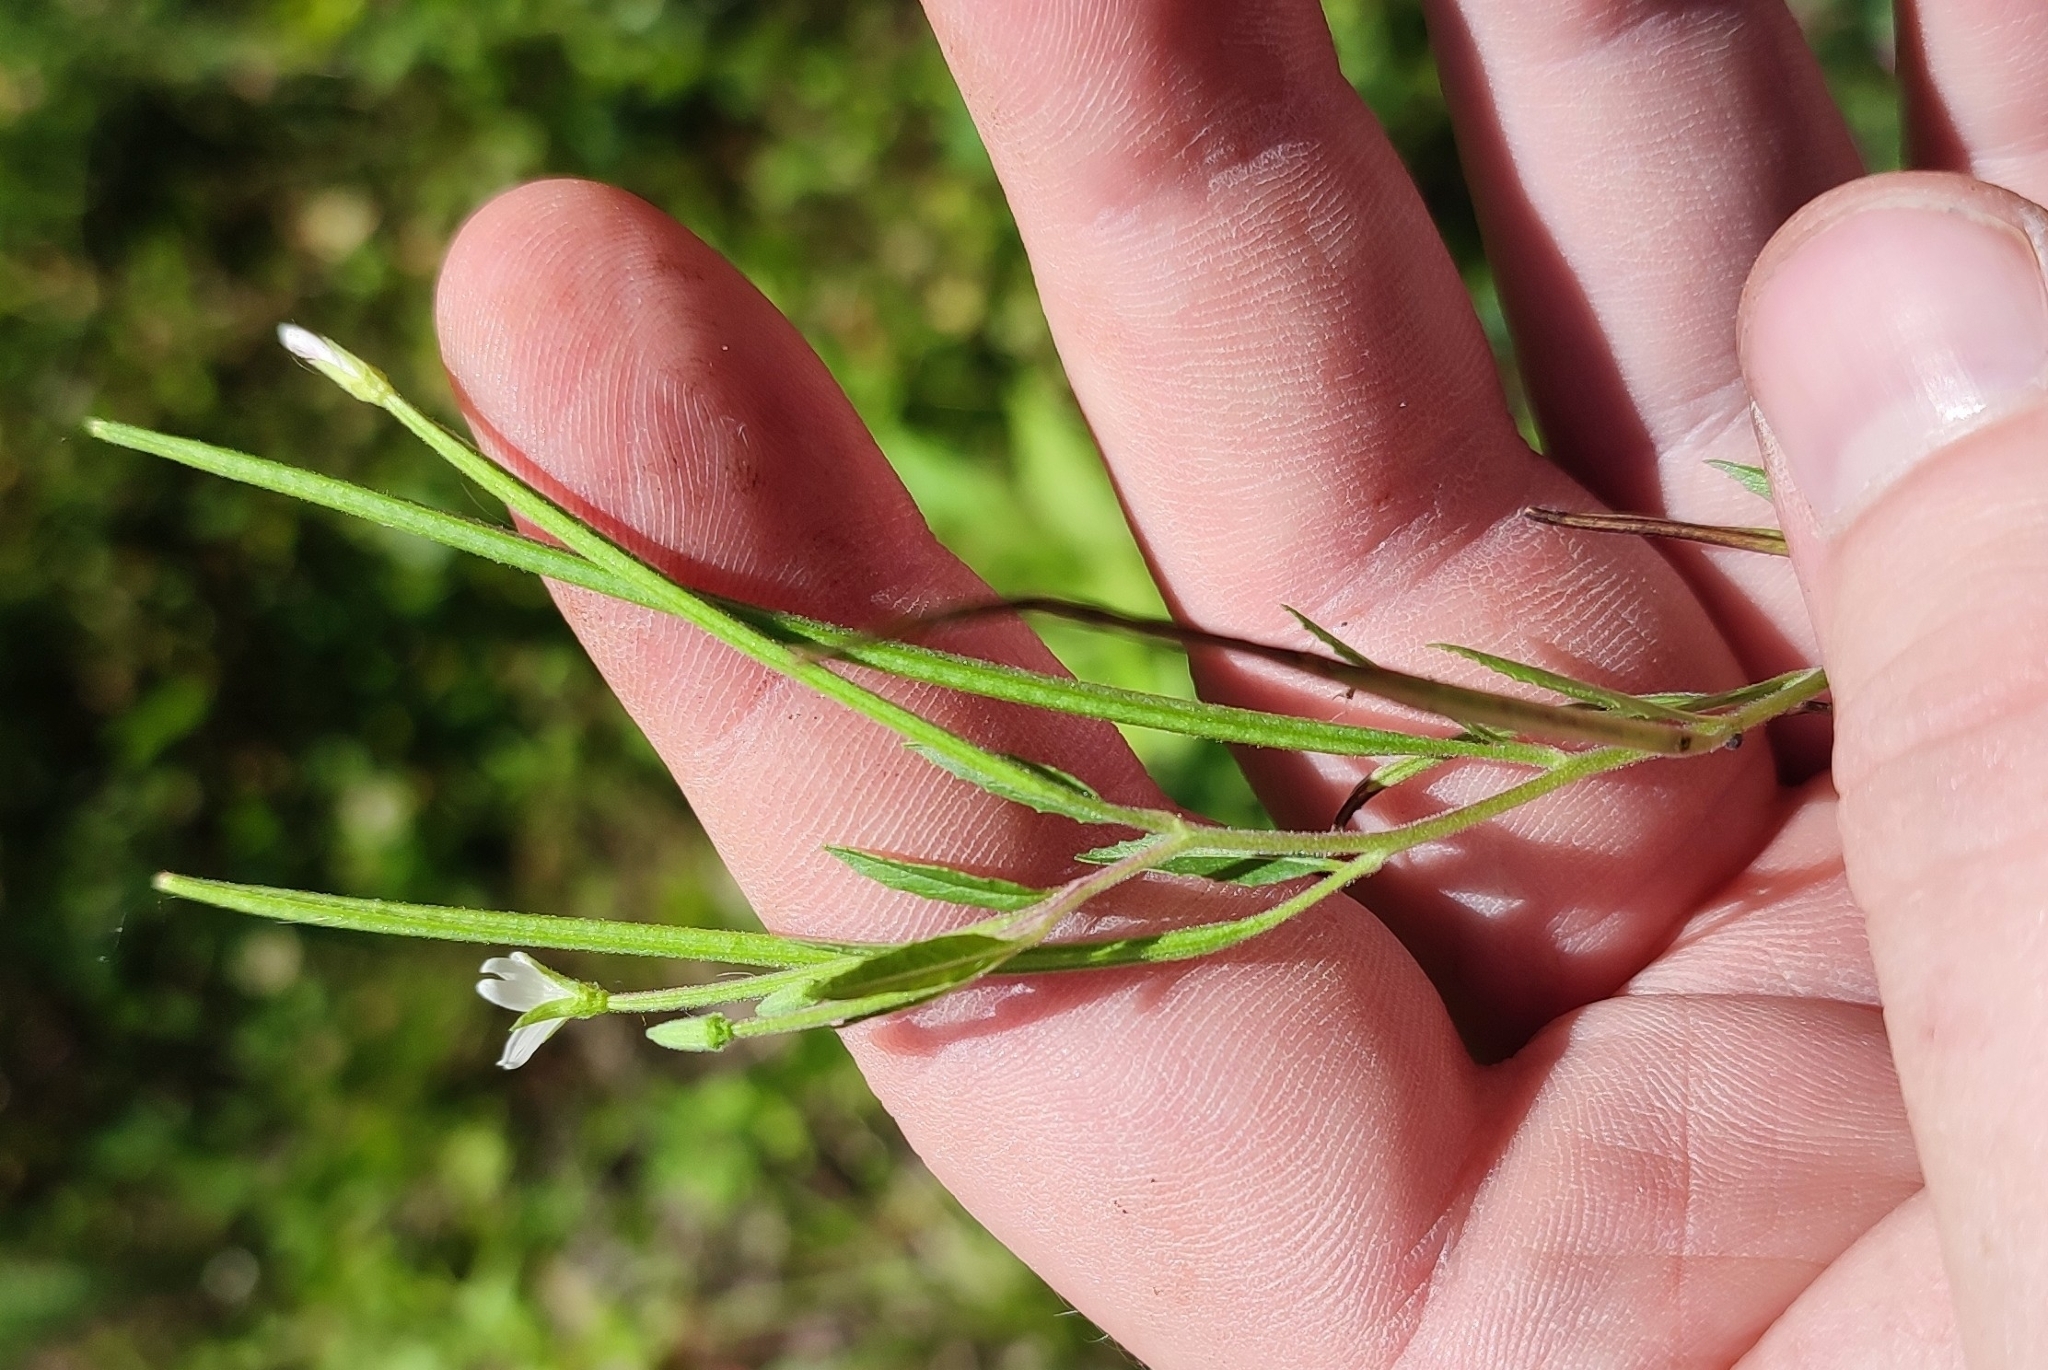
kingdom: Plantae
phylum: Tracheophyta
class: Magnoliopsida
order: Myrtales
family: Onagraceae
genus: Epilobium
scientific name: Epilobium pseudorubescens
